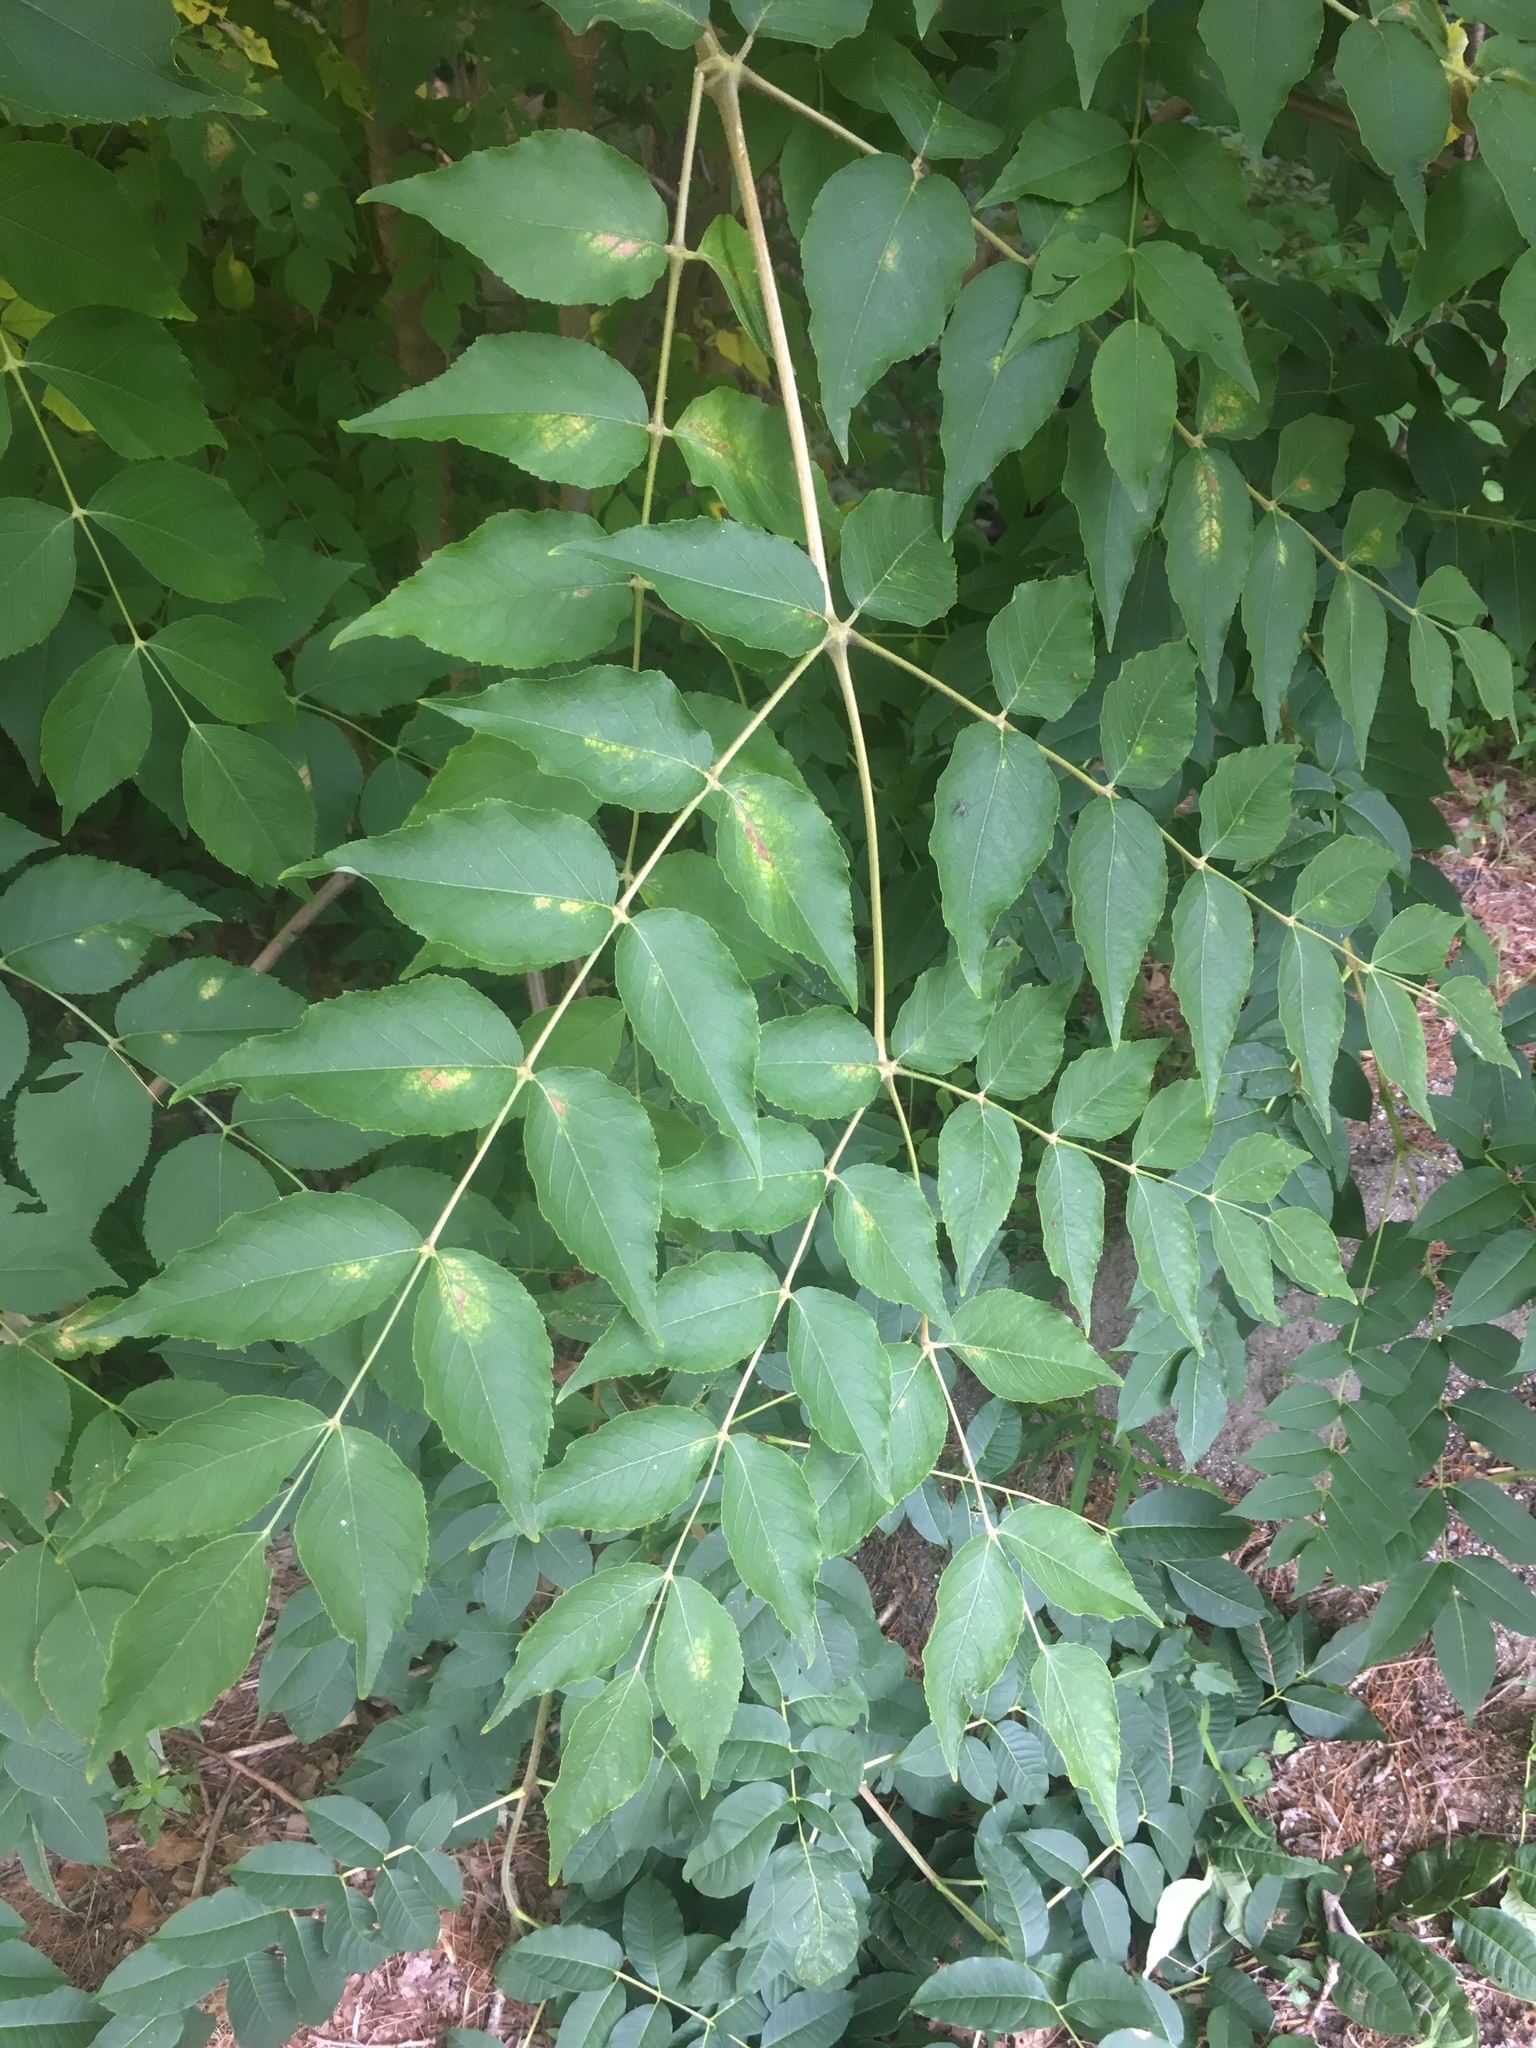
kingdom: Plantae
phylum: Tracheophyta
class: Magnoliopsida
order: Apiales
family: Araliaceae
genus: Aralia
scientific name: Aralia elata
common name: Japanese angelica-tree
